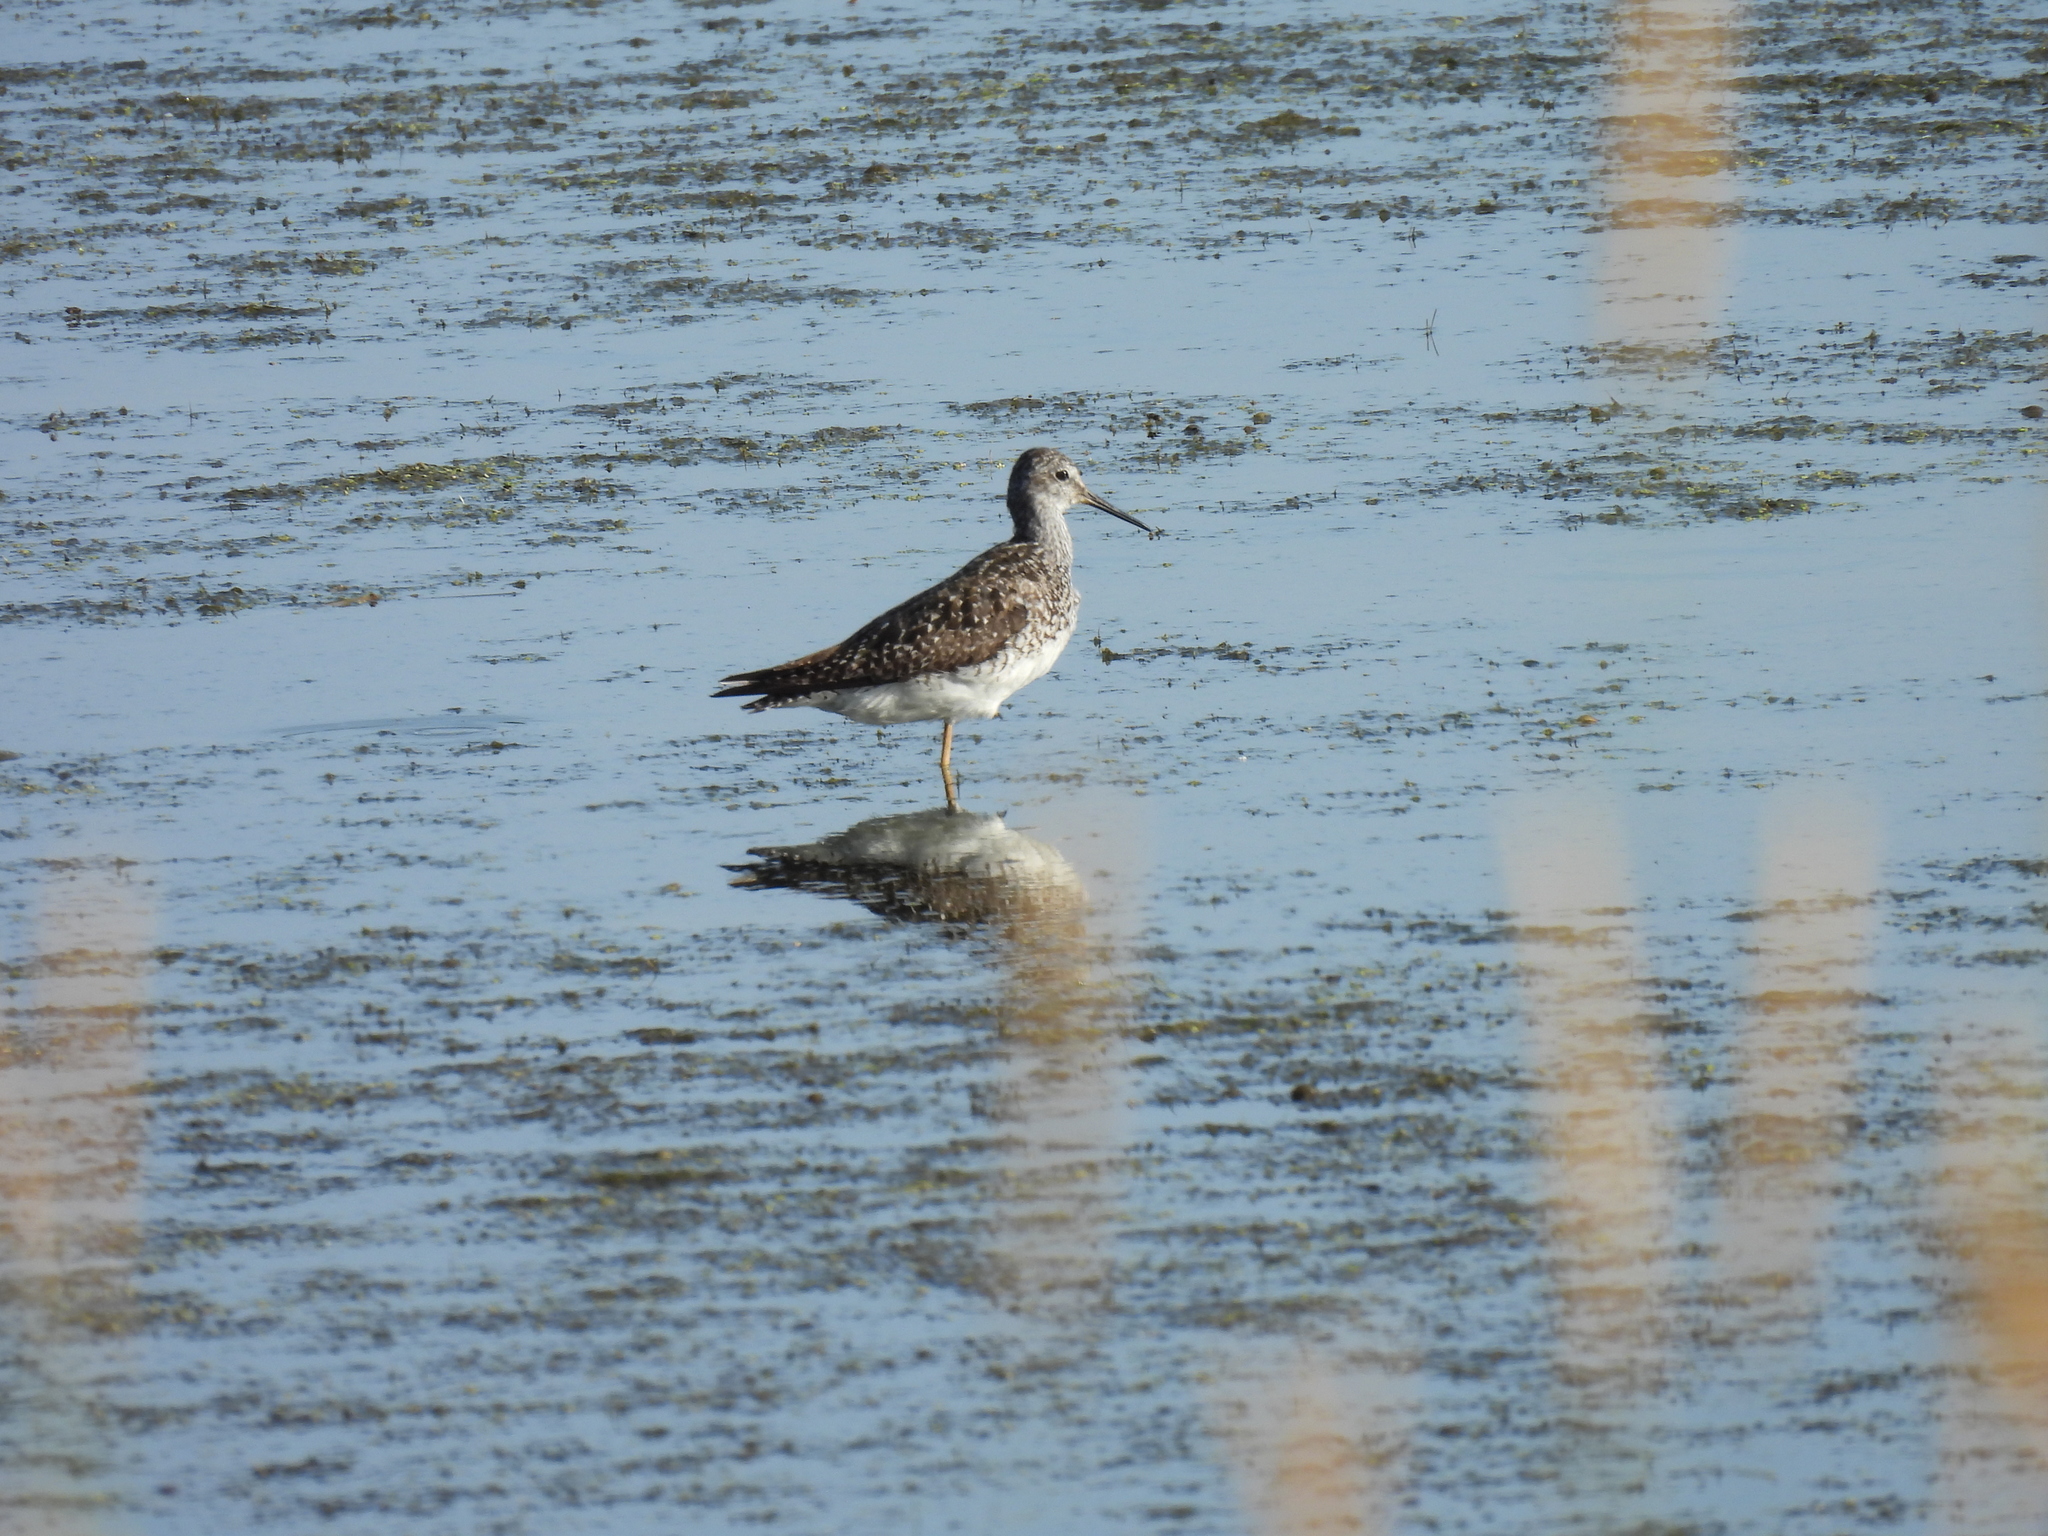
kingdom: Animalia
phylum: Chordata
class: Aves
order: Charadriiformes
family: Scolopacidae
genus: Tringa
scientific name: Tringa flavipes
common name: Lesser yellowlegs
